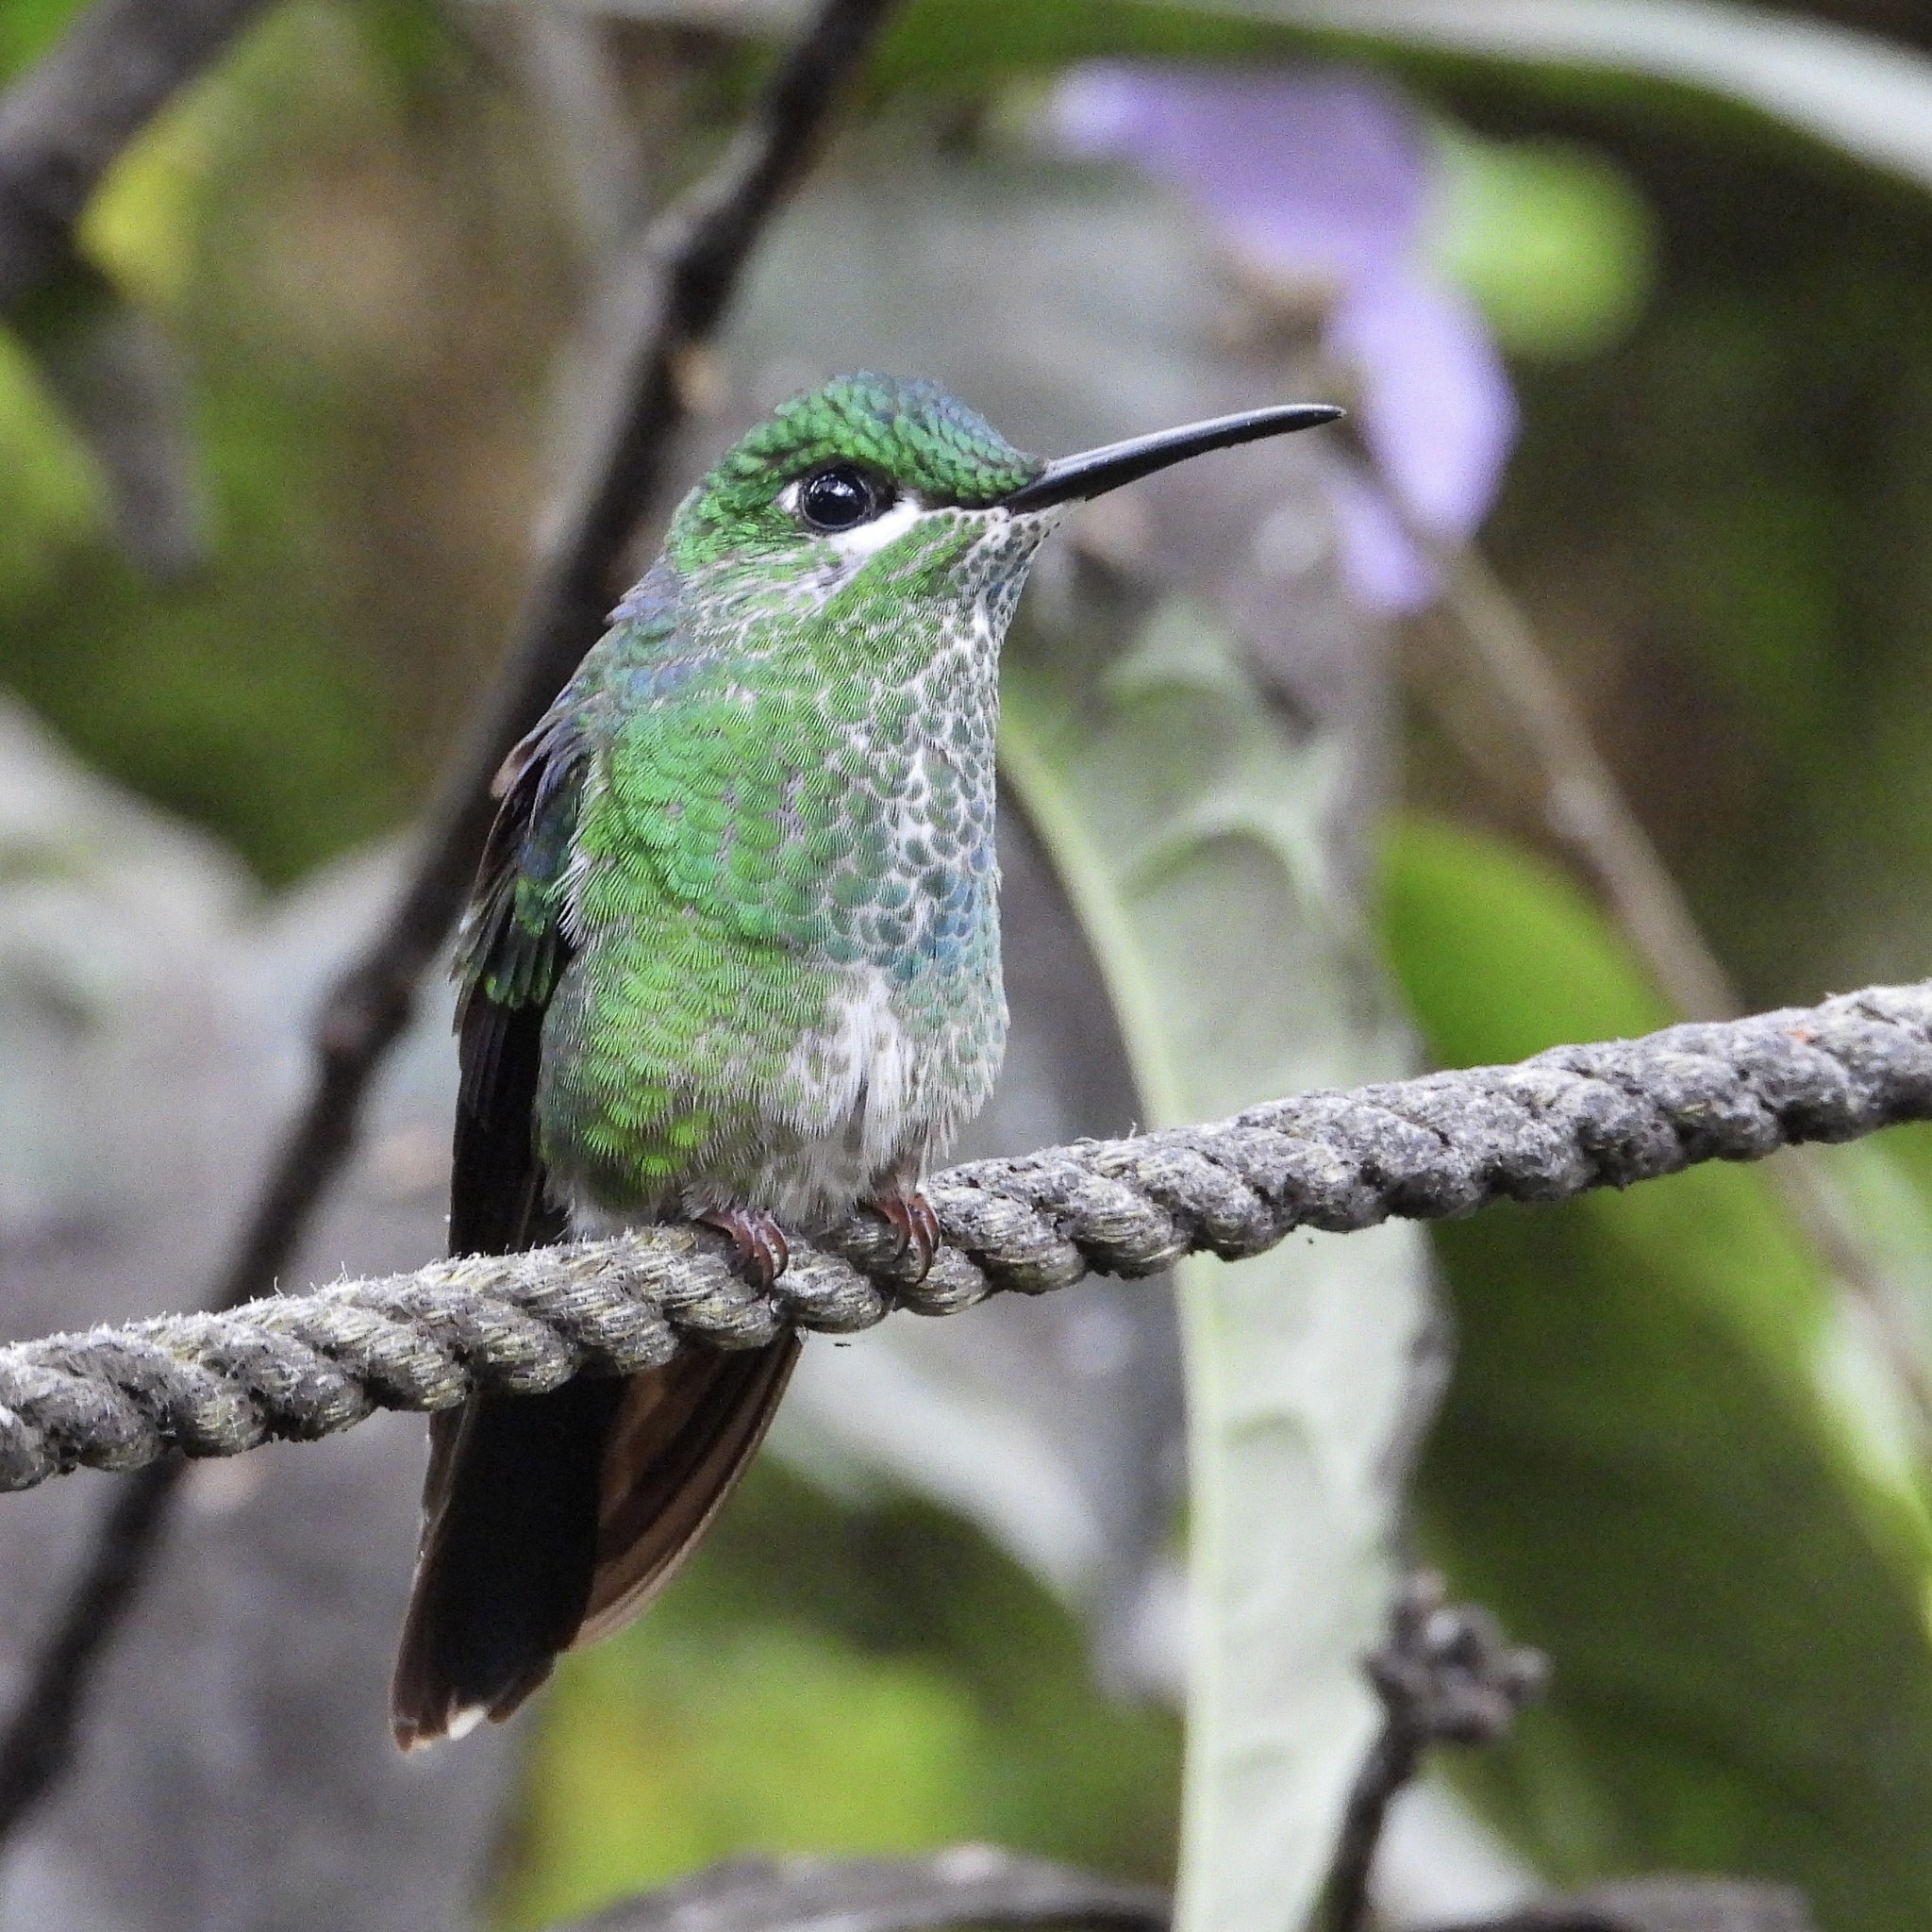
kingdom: Animalia
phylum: Chordata
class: Aves
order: Apodiformes
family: Trochilidae
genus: Heliodoxa
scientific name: Heliodoxa jacula
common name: Green-crowned brilliant
